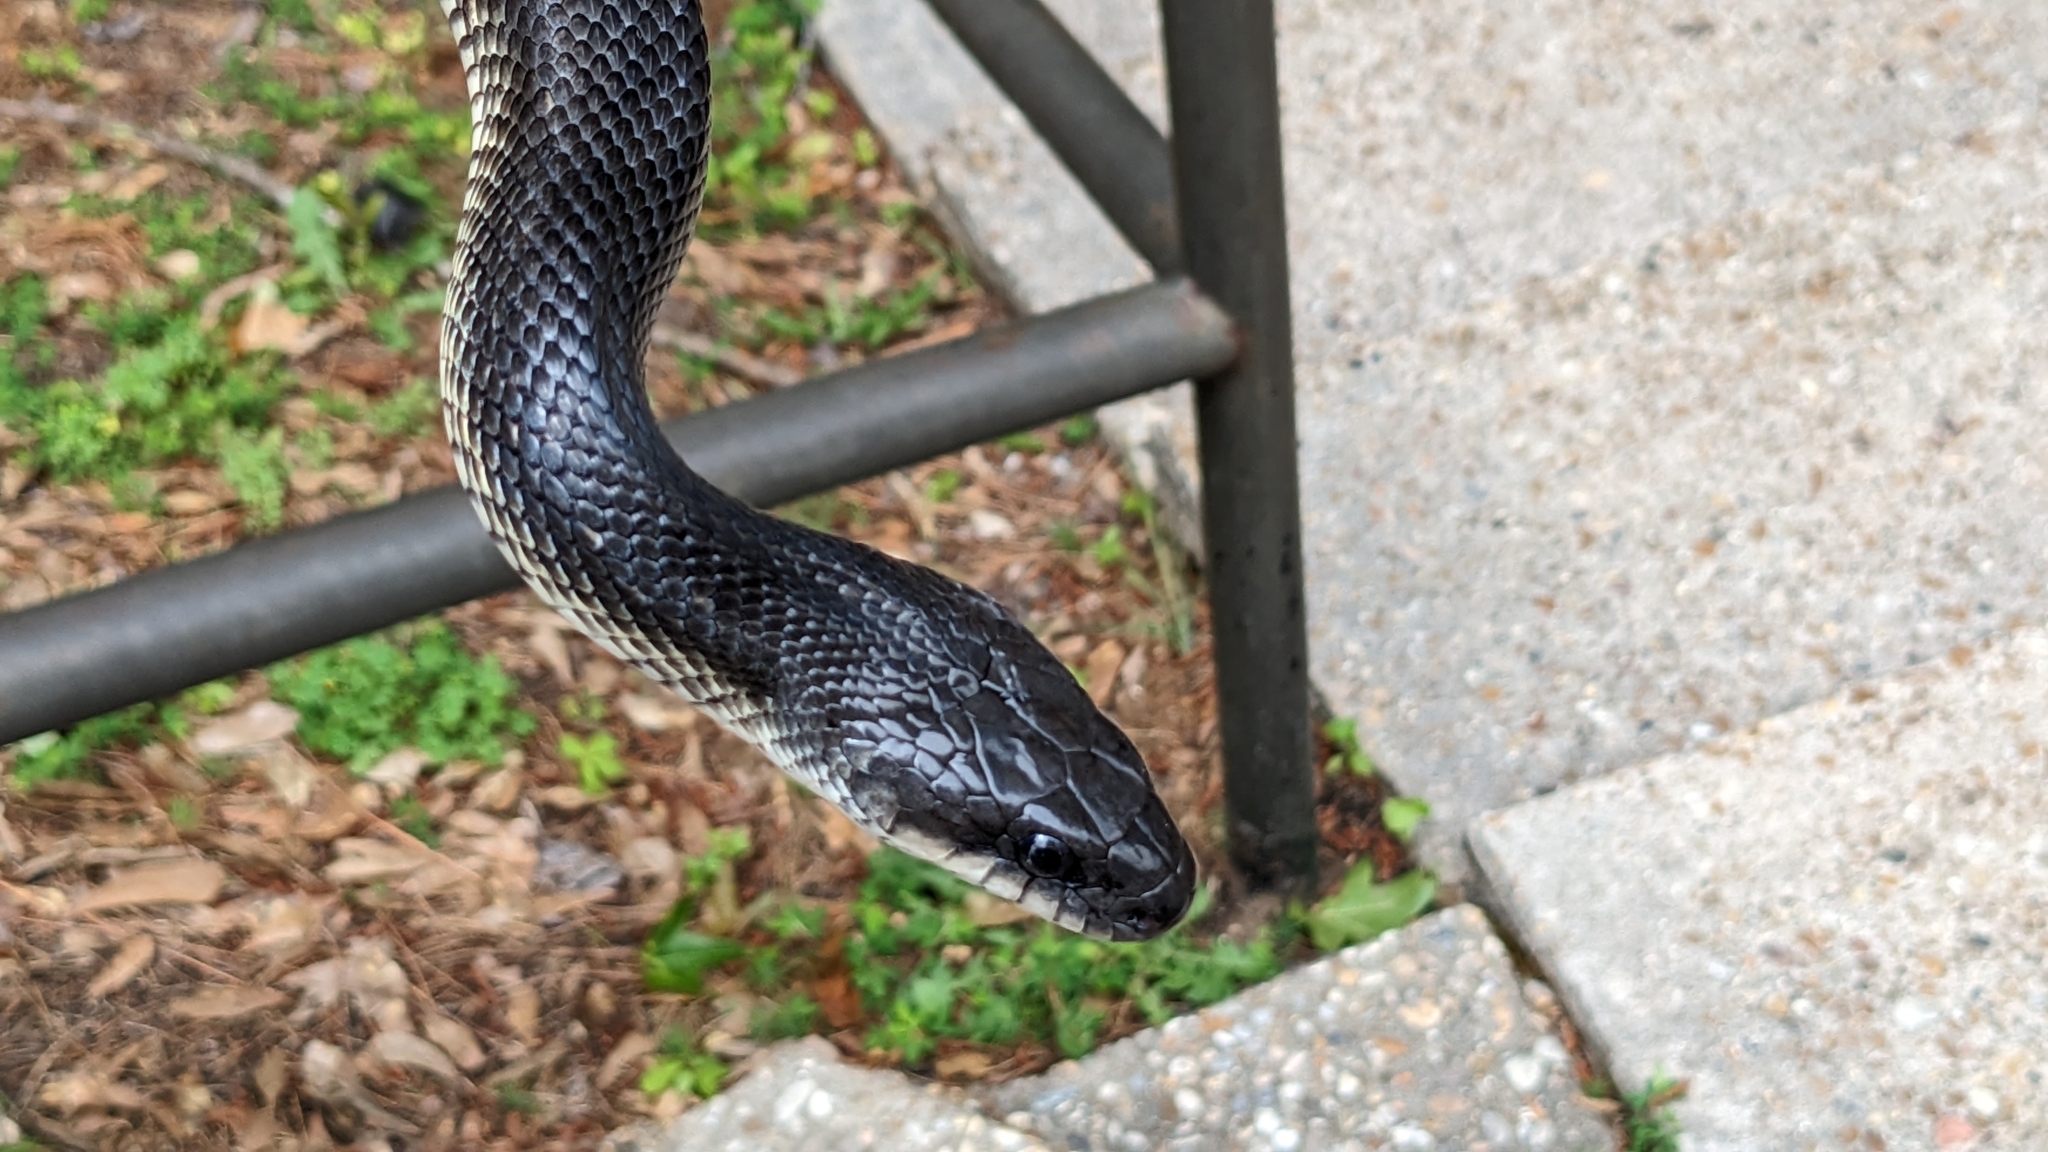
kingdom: Animalia
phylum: Chordata
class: Squamata
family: Colubridae
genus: Pantherophis
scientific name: Pantherophis obsoletus
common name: Black rat snake
